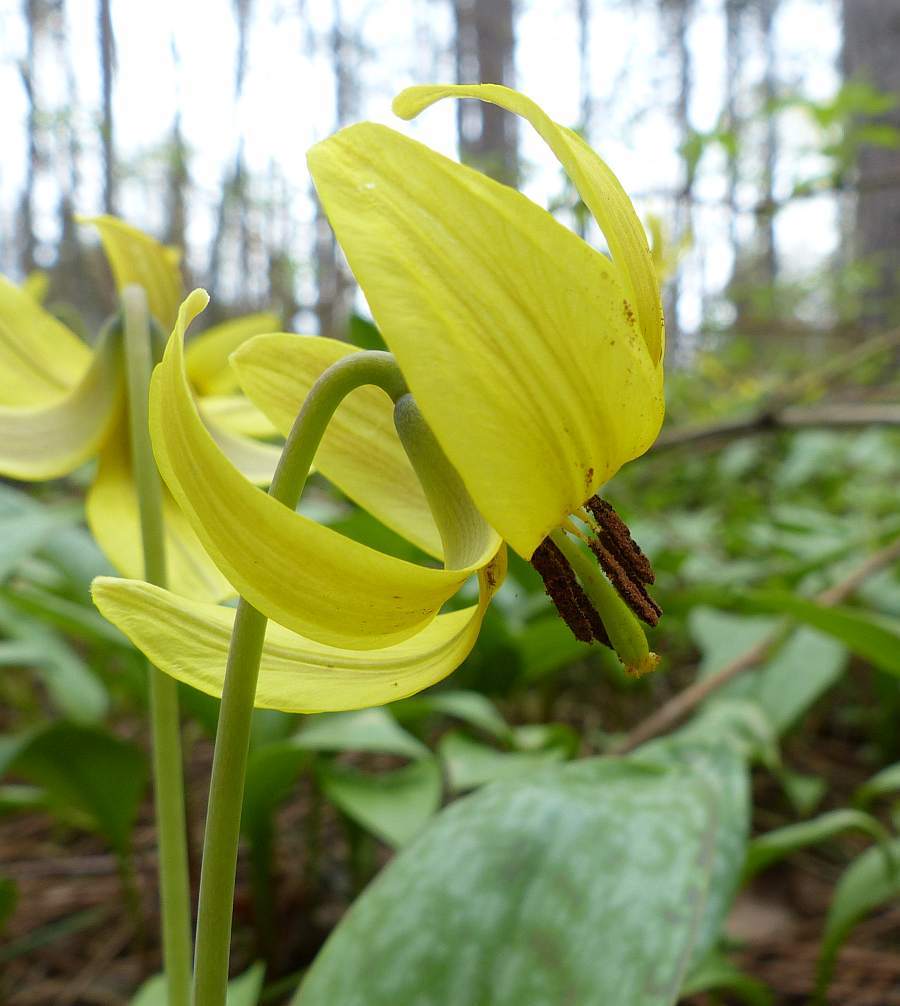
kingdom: Plantae
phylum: Tracheophyta
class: Liliopsida
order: Liliales
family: Liliaceae
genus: Erythronium
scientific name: Erythronium americanum
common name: Yellow adder's-tongue
